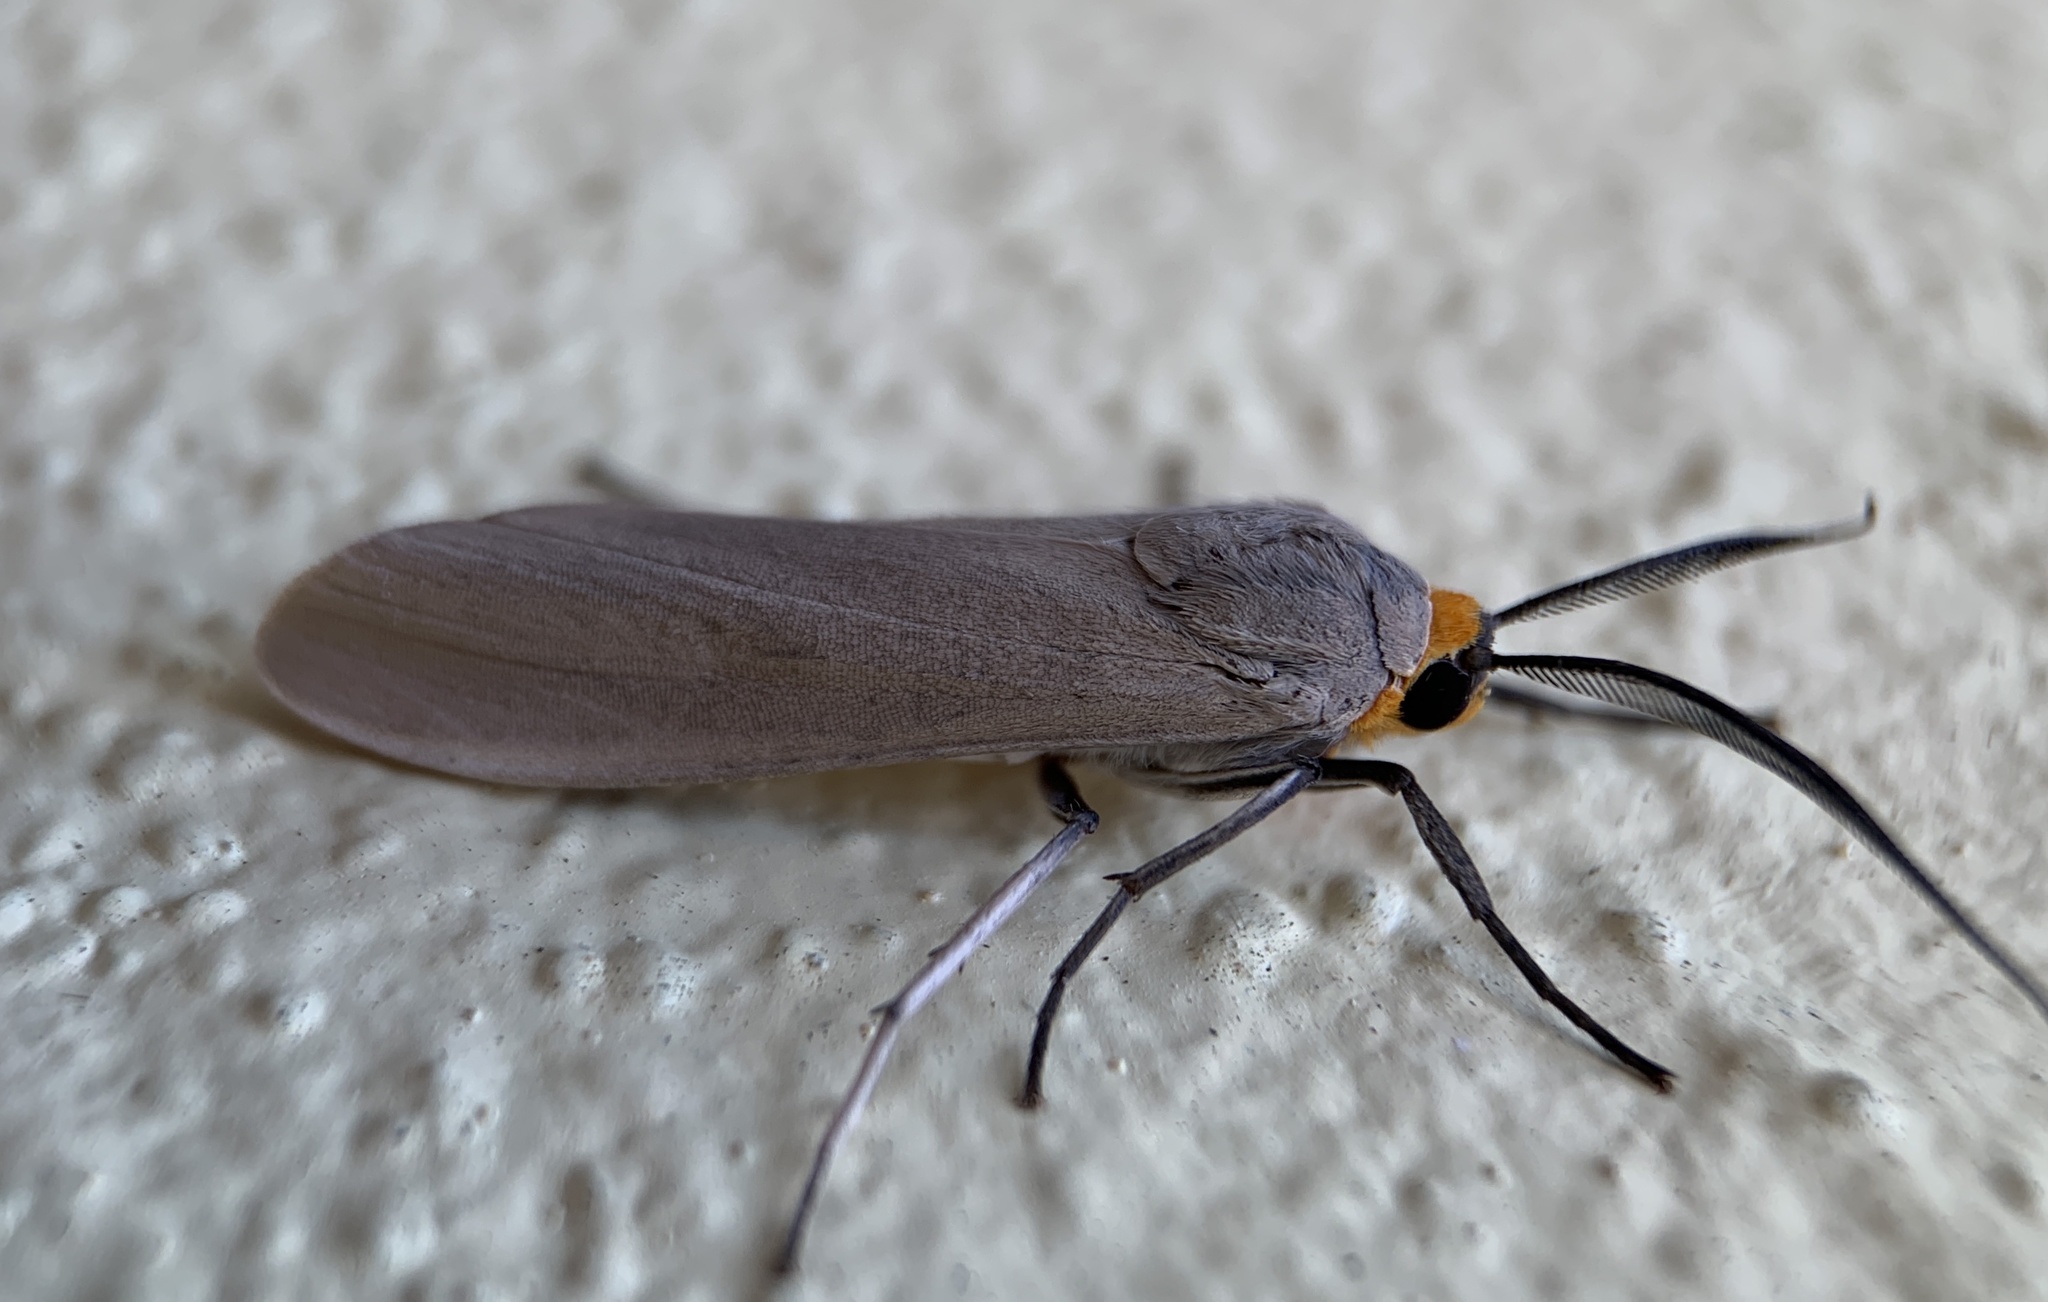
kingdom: Animalia
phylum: Arthropoda
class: Insecta
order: Lepidoptera
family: Erebidae
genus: Lymire
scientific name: Lymire edwardsii
